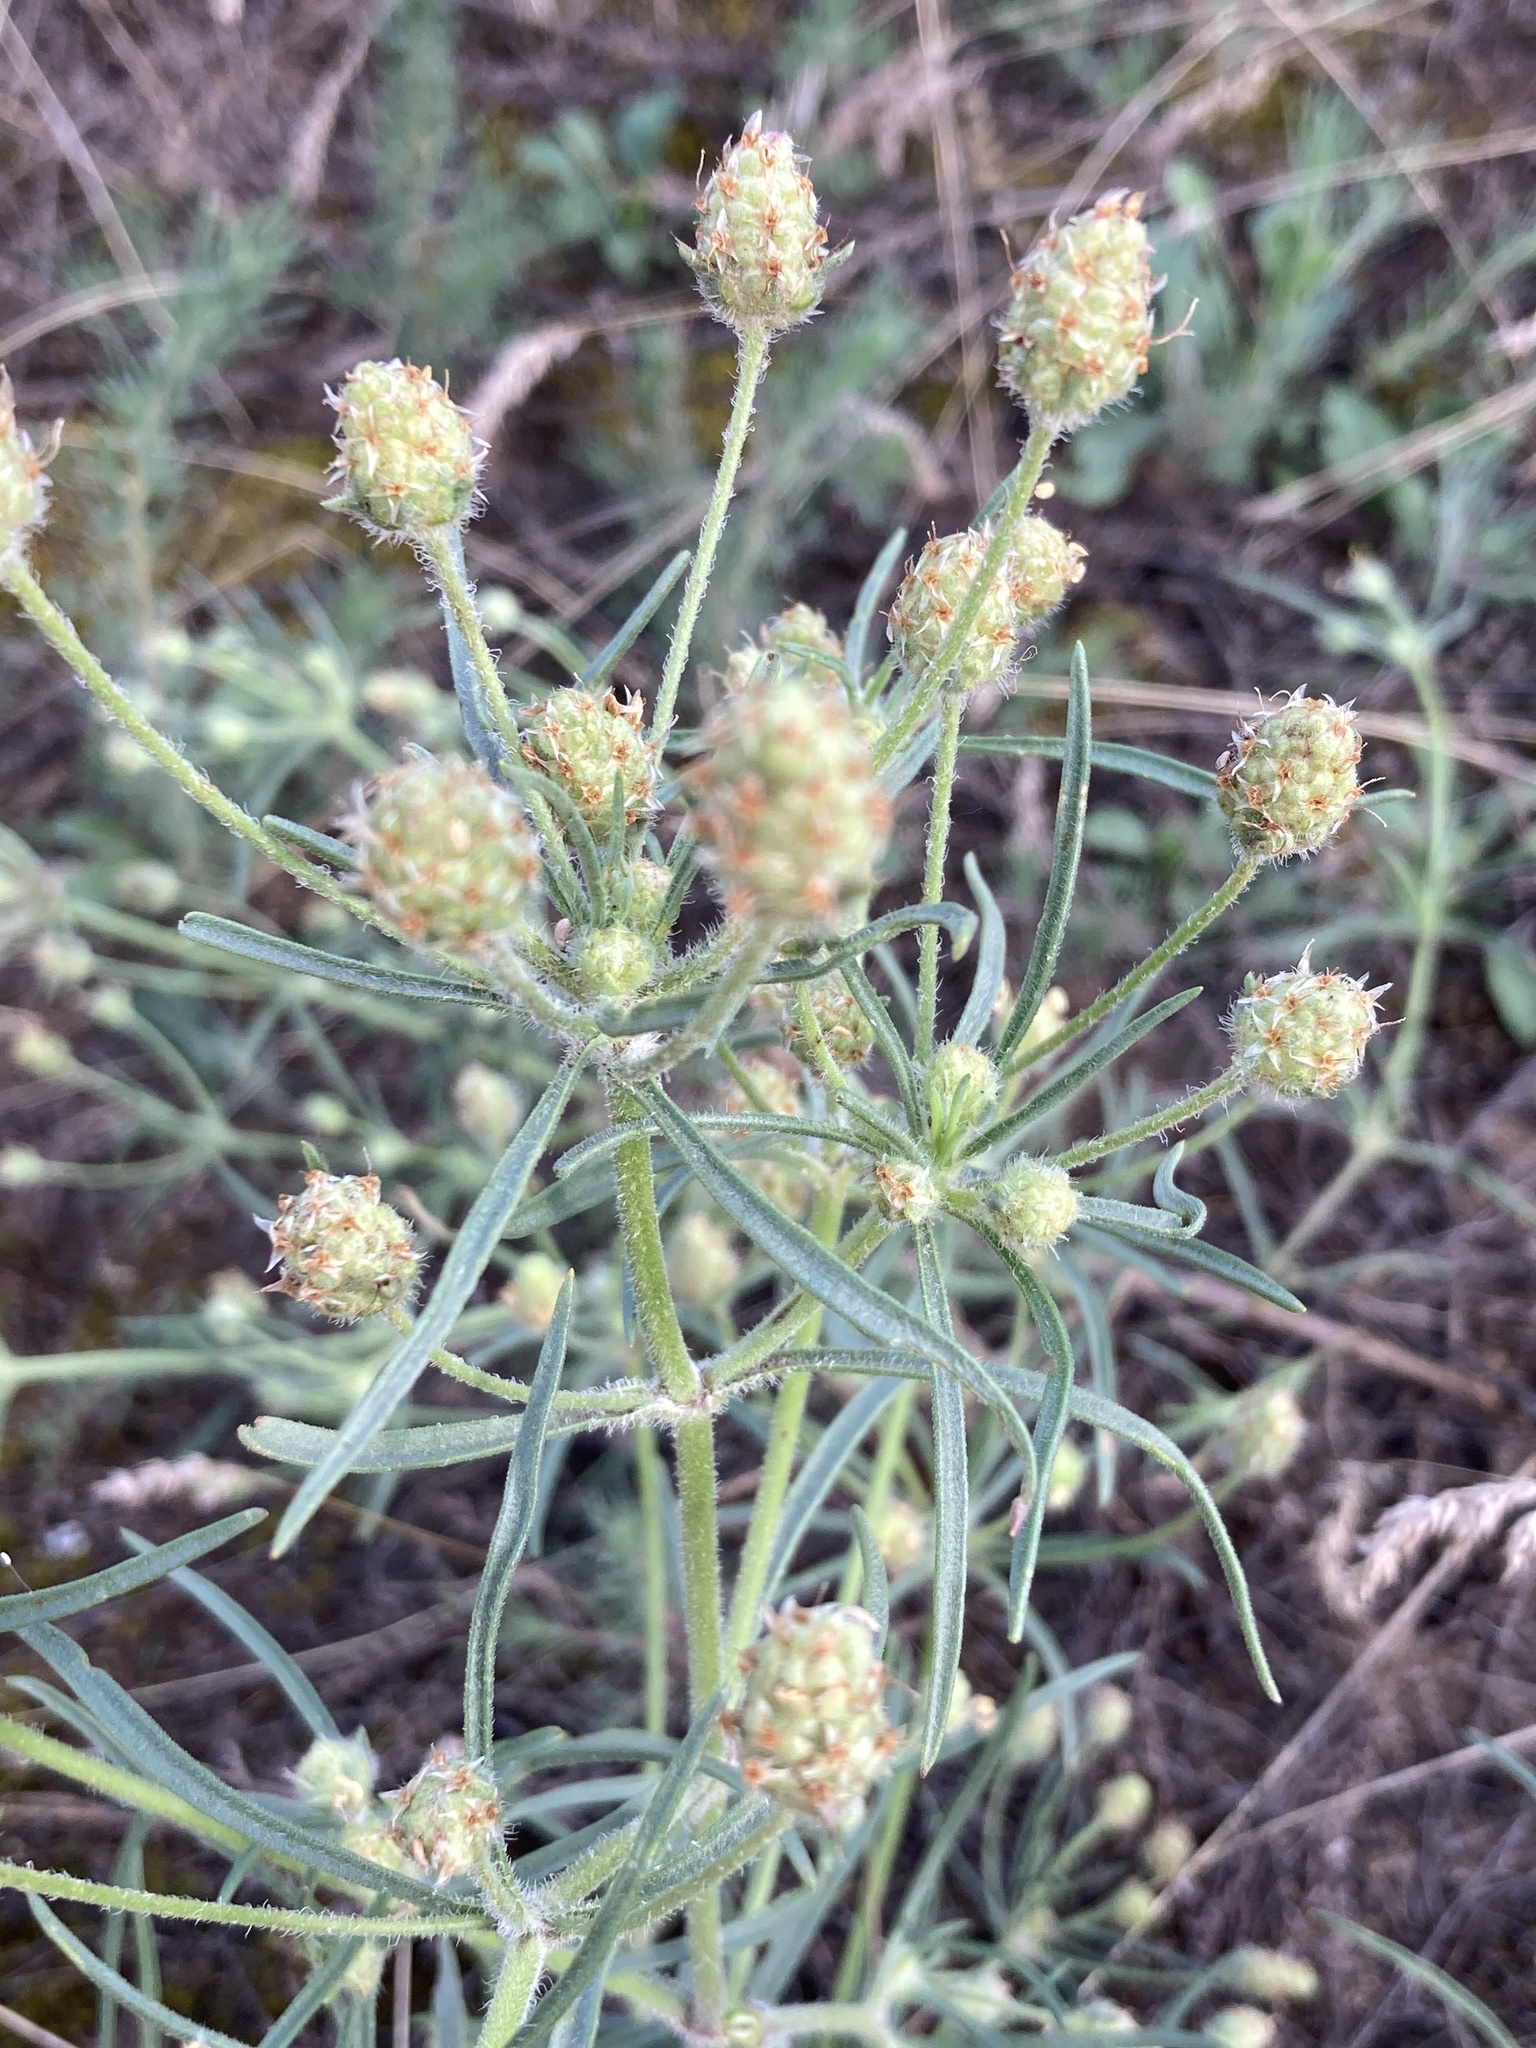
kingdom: Plantae
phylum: Tracheophyta
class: Magnoliopsida
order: Lamiales
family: Plantaginaceae
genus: Plantago
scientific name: Plantago arenaria
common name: Branched plantain
